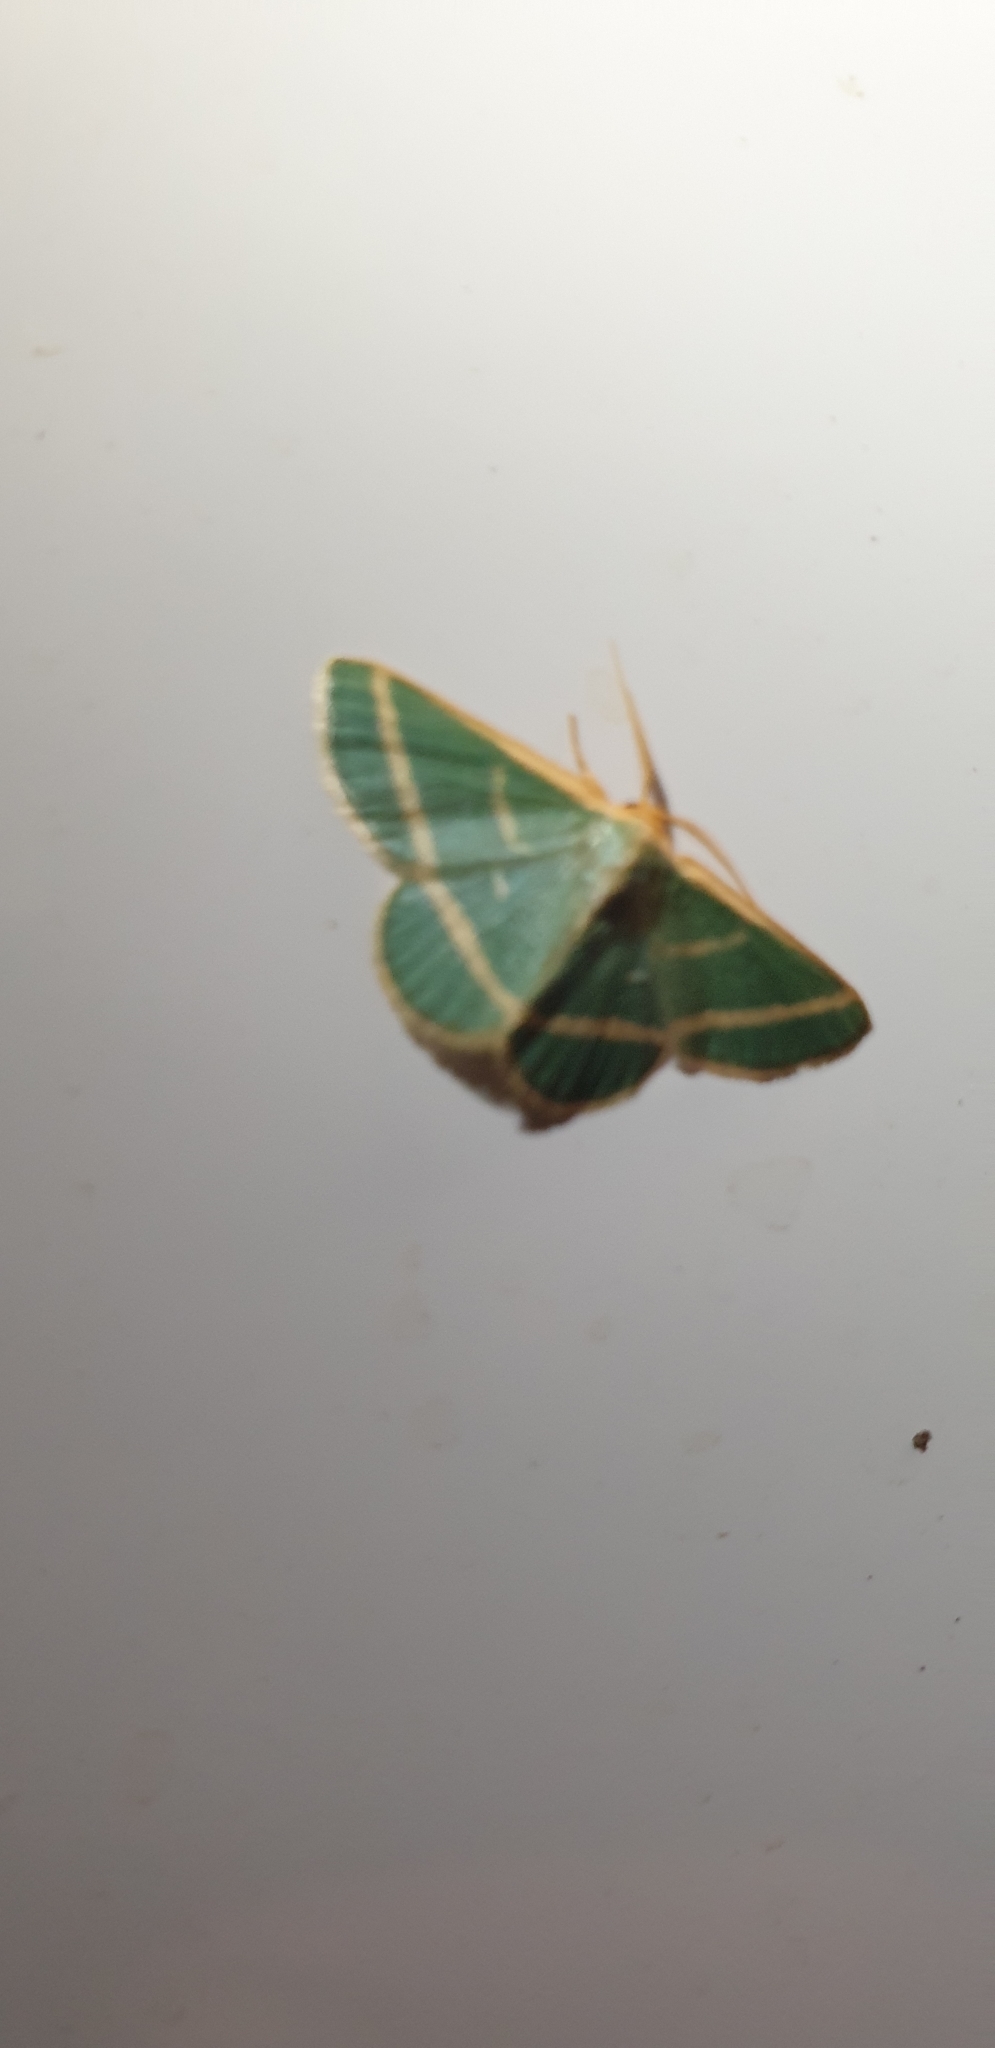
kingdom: Animalia
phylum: Arthropoda
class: Insecta
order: Lepidoptera
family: Geometridae
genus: Mixocera
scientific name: Mixocera latilineata
